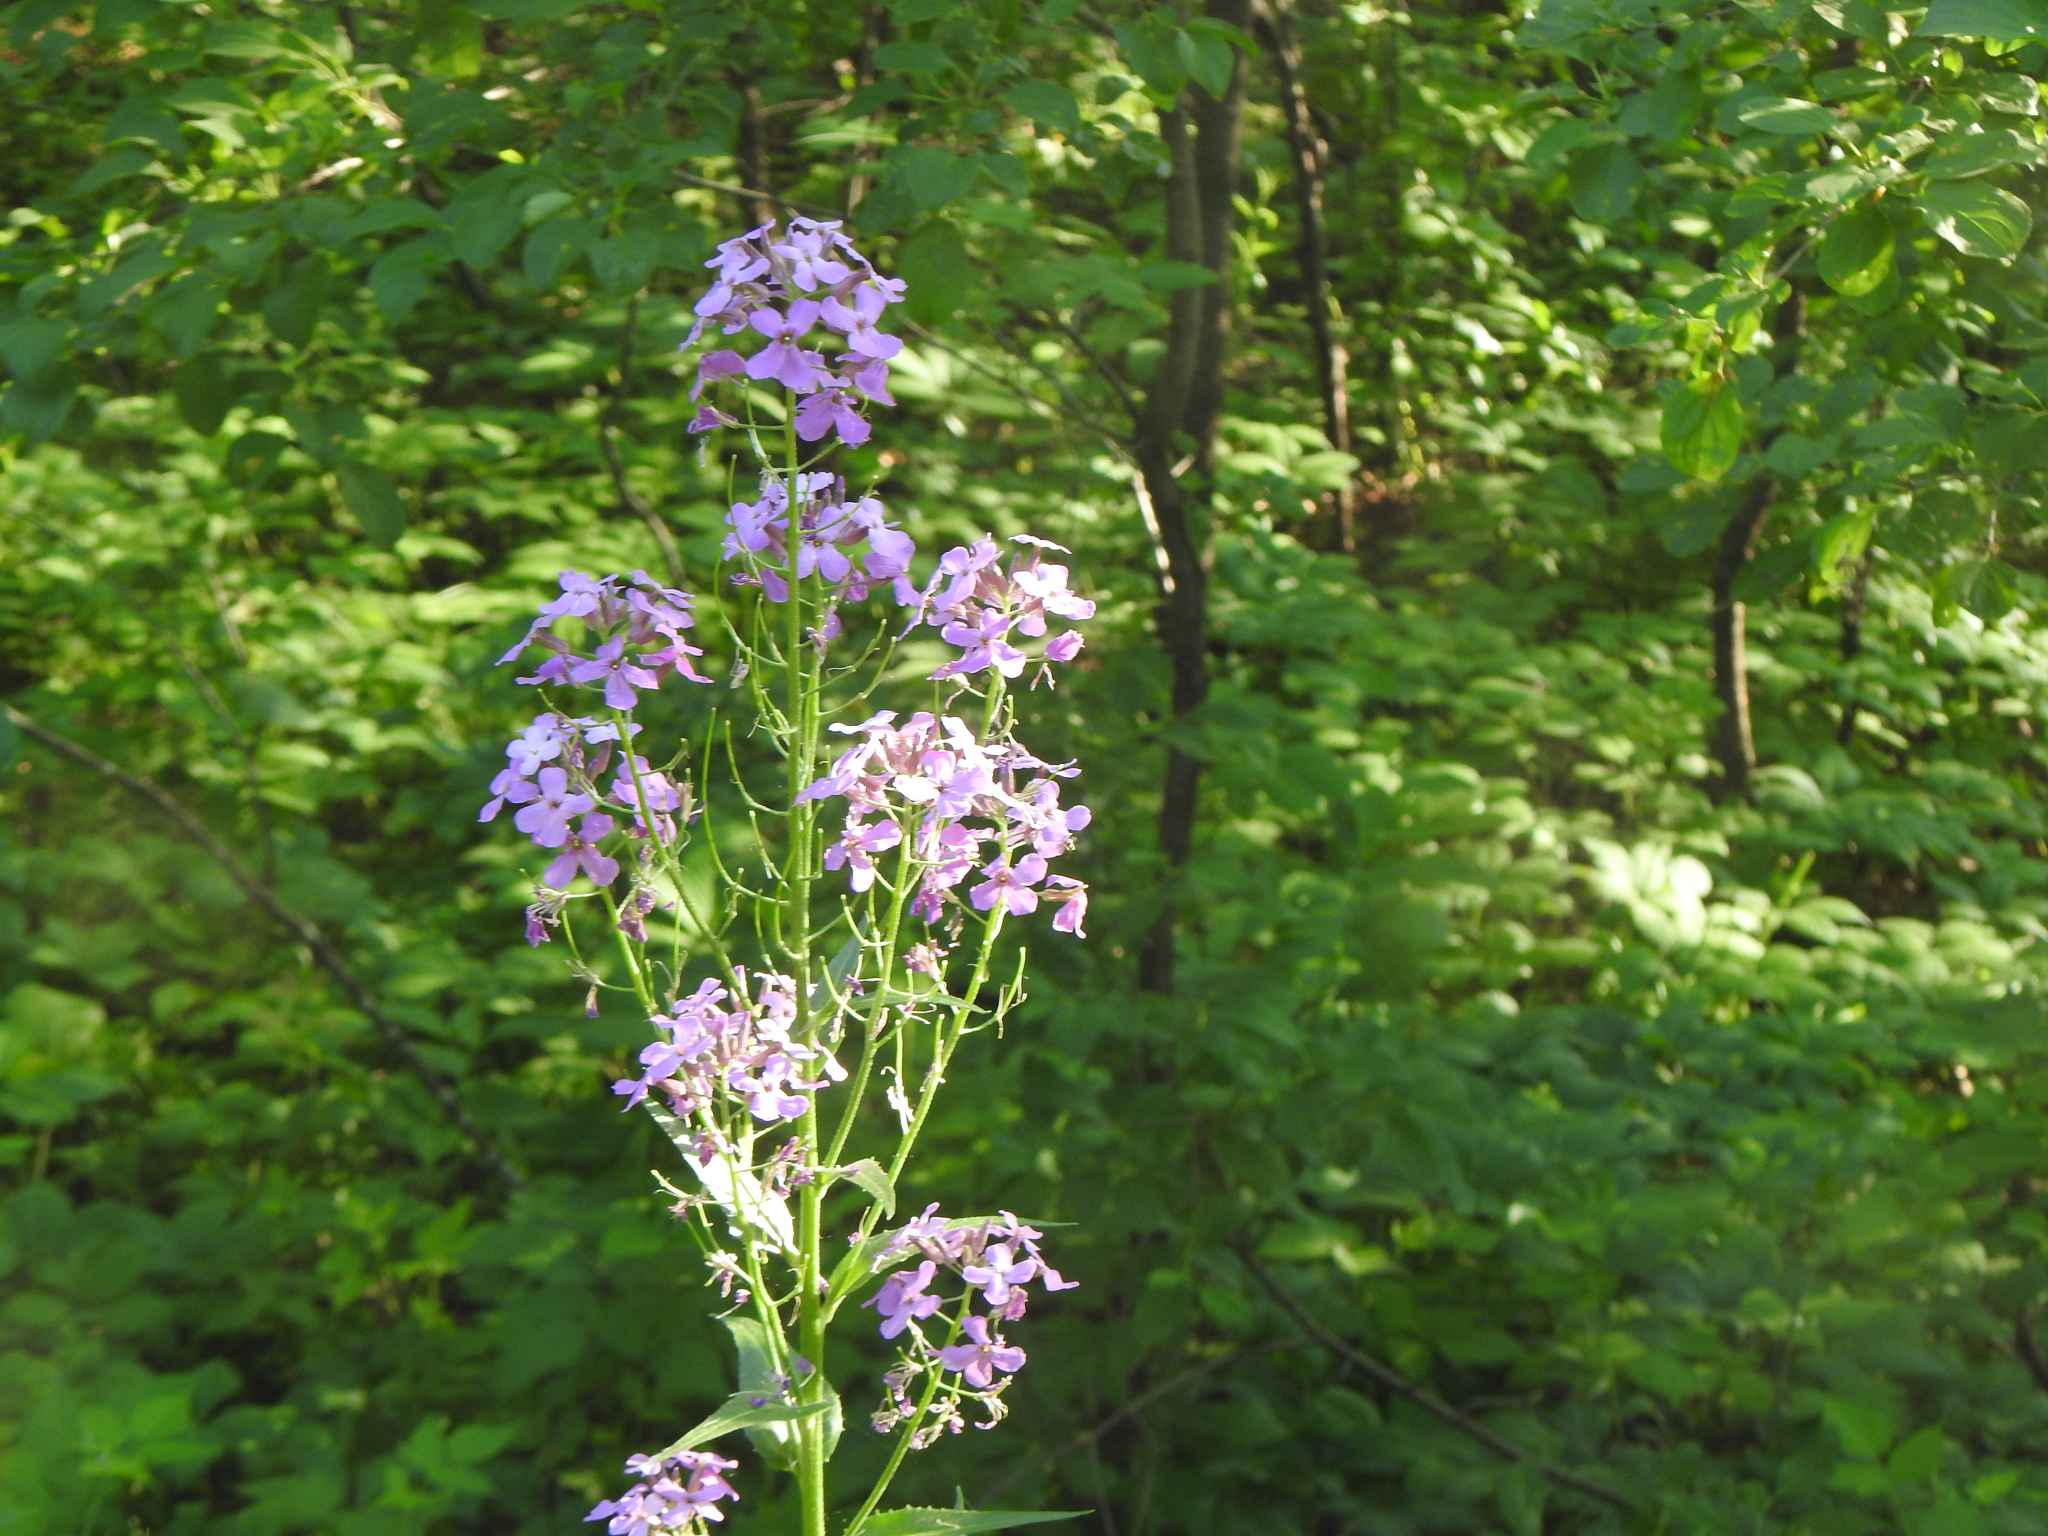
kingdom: Plantae
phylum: Tracheophyta
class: Magnoliopsida
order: Brassicales
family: Brassicaceae
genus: Hesperis
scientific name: Hesperis matronalis
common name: Dame's-violet
